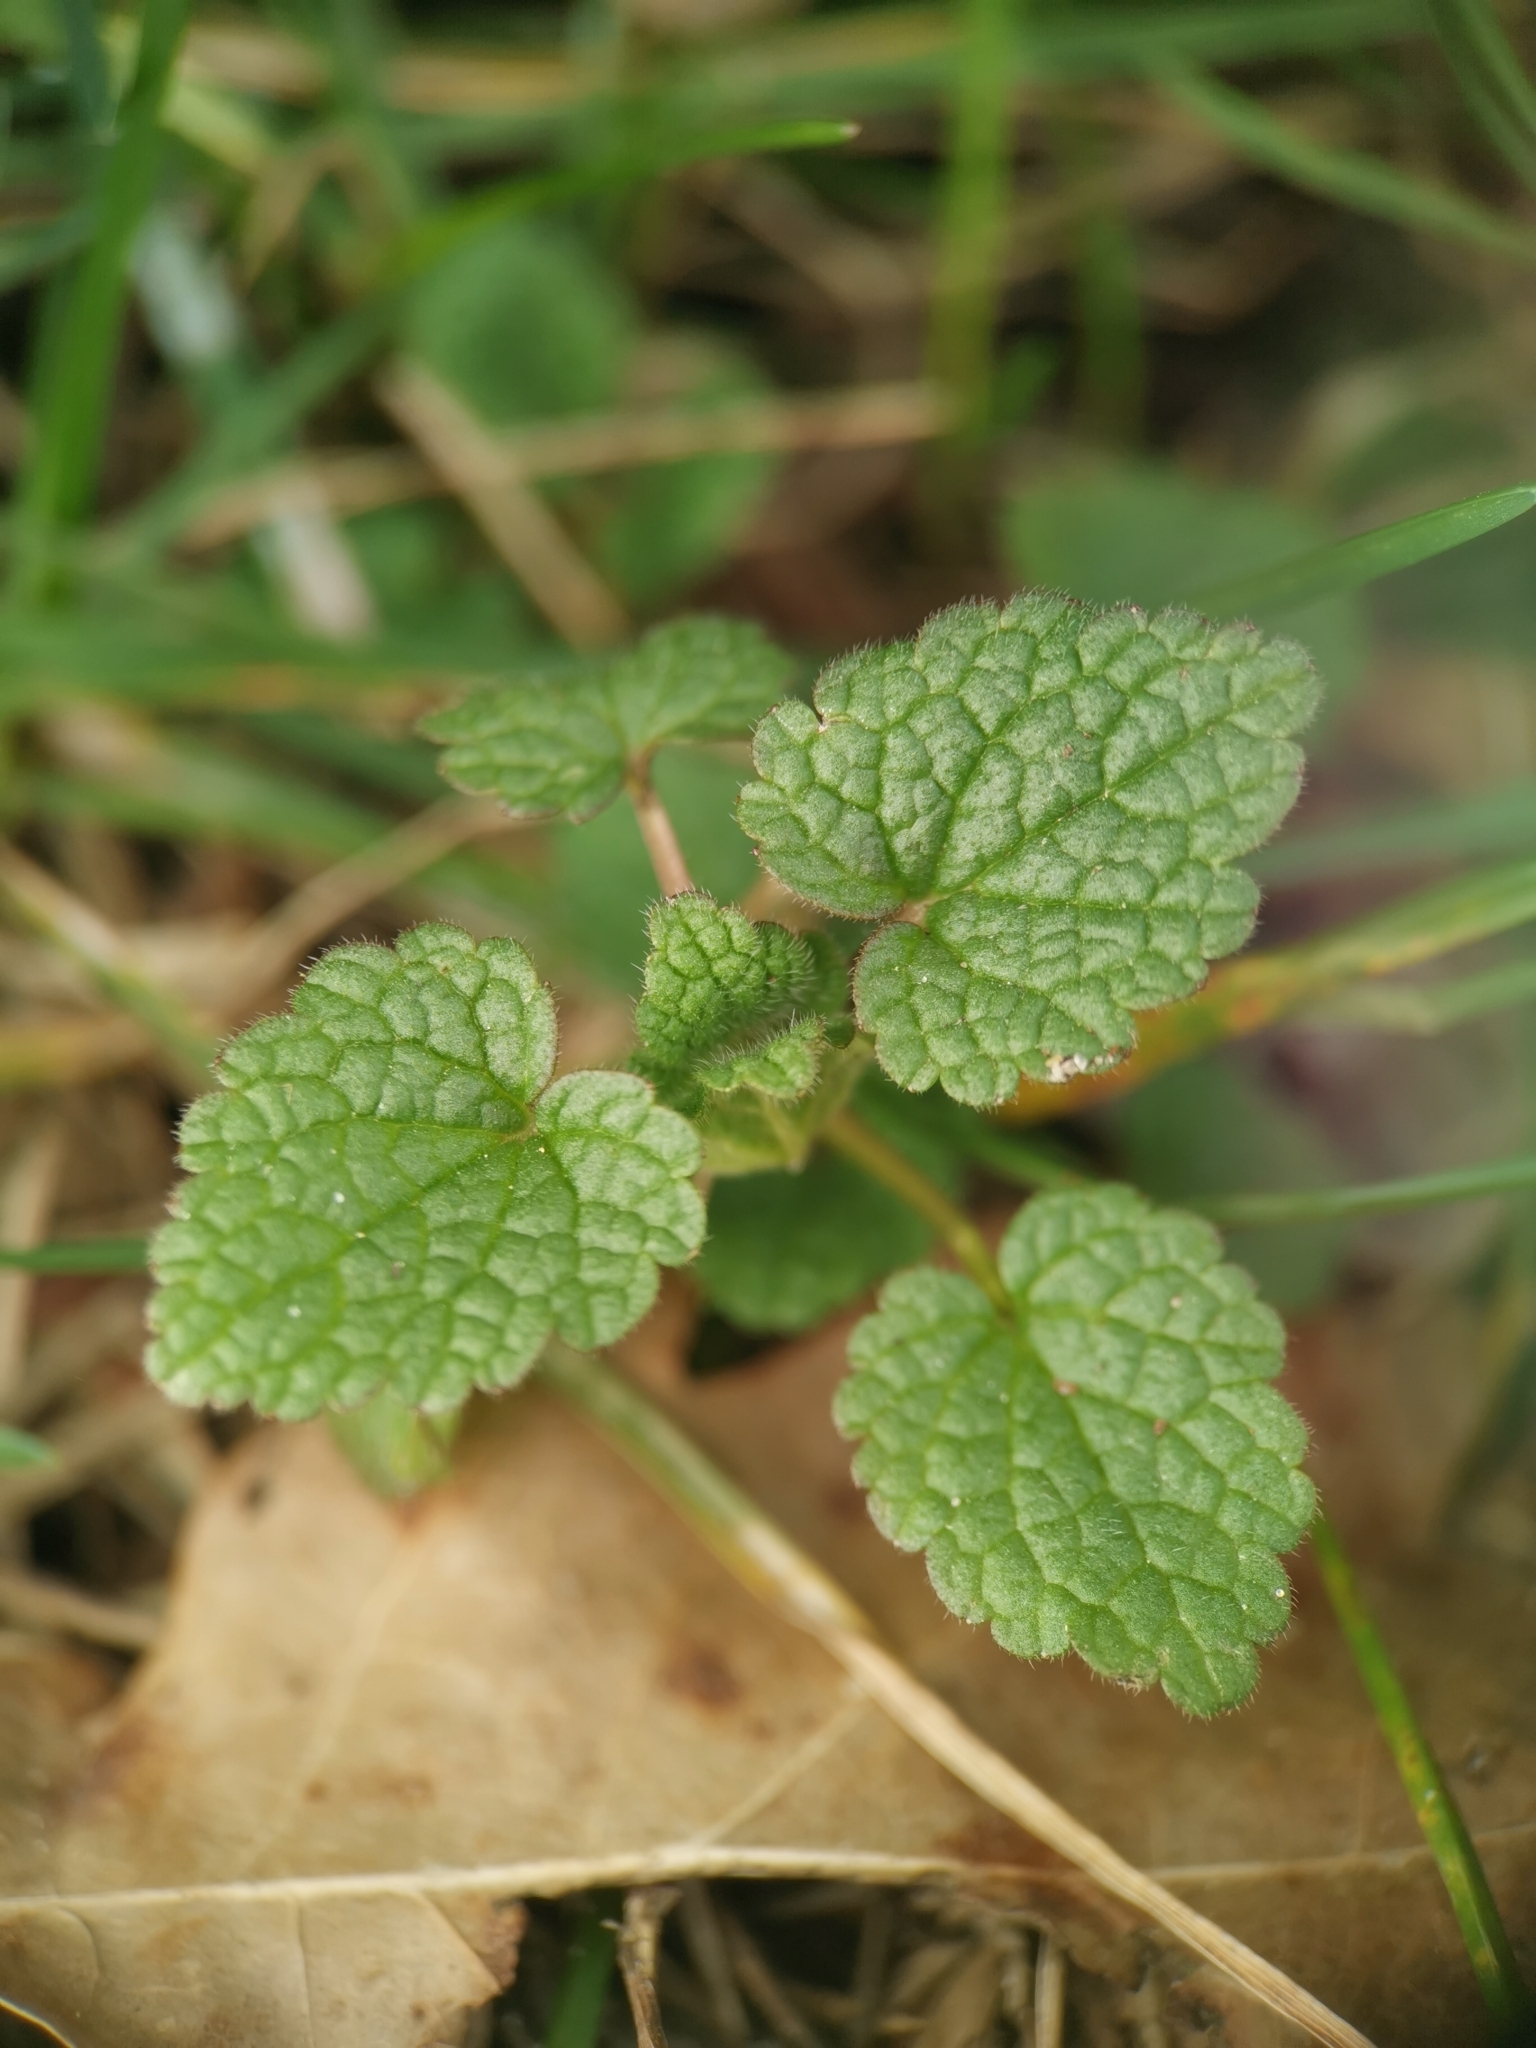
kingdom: Plantae
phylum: Tracheophyta
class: Magnoliopsida
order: Lamiales
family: Lamiaceae
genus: Lamium
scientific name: Lamium purpureum
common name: Red dead-nettle
